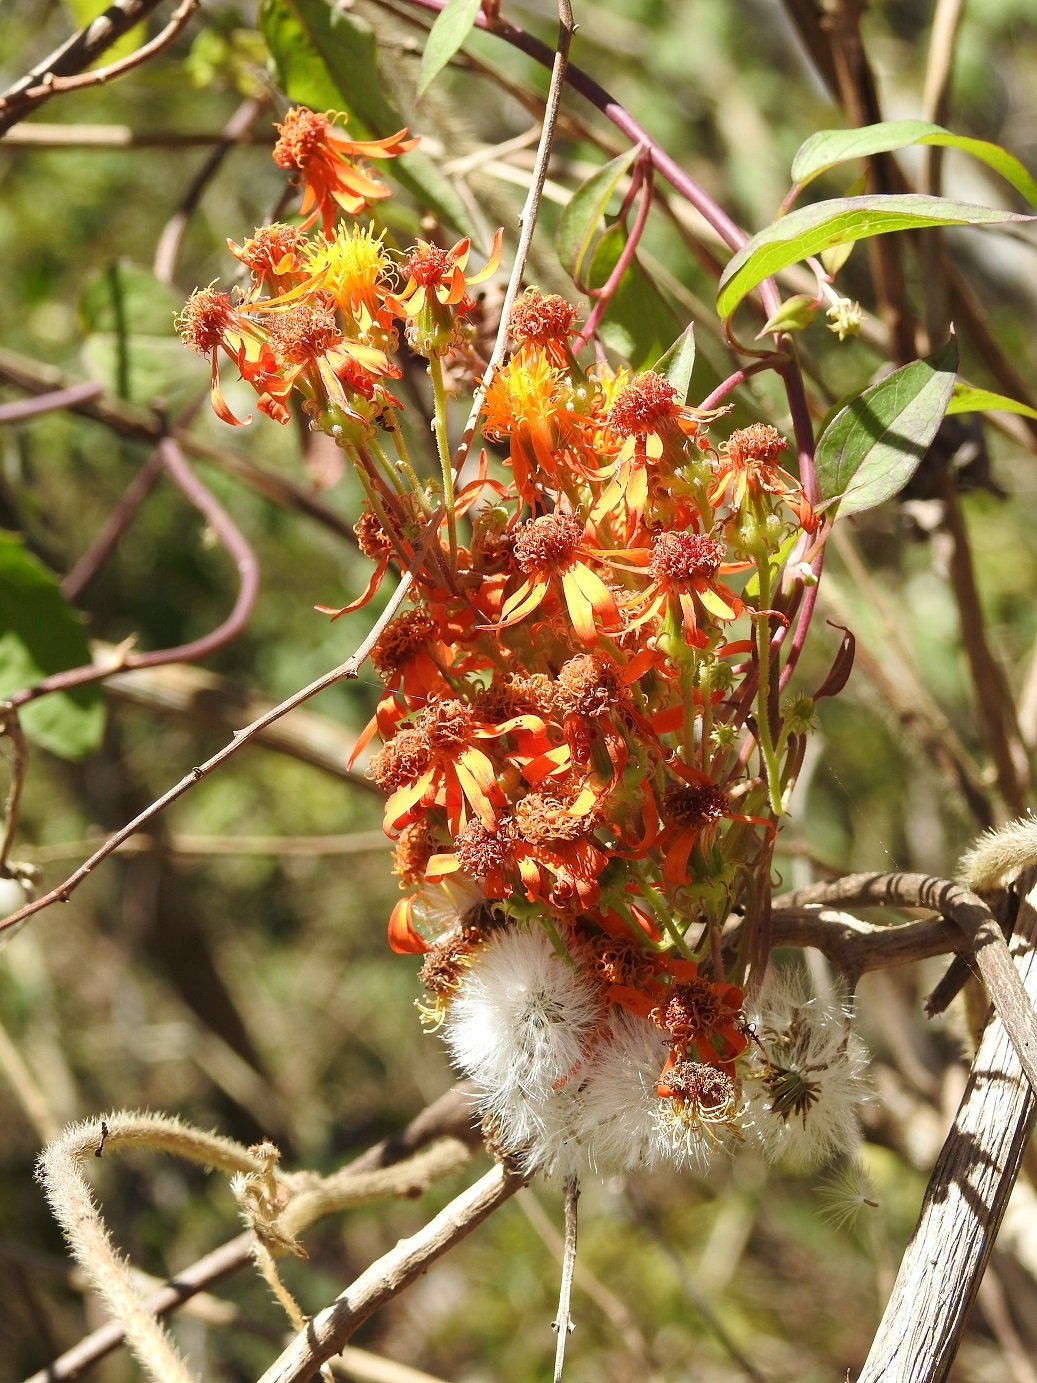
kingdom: Plantae
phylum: Tracheophyta
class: Magnoliopsida
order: Asterales
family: Asteraceae
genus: Pseudogynoxys
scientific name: Pseudogynoxys haenkei
